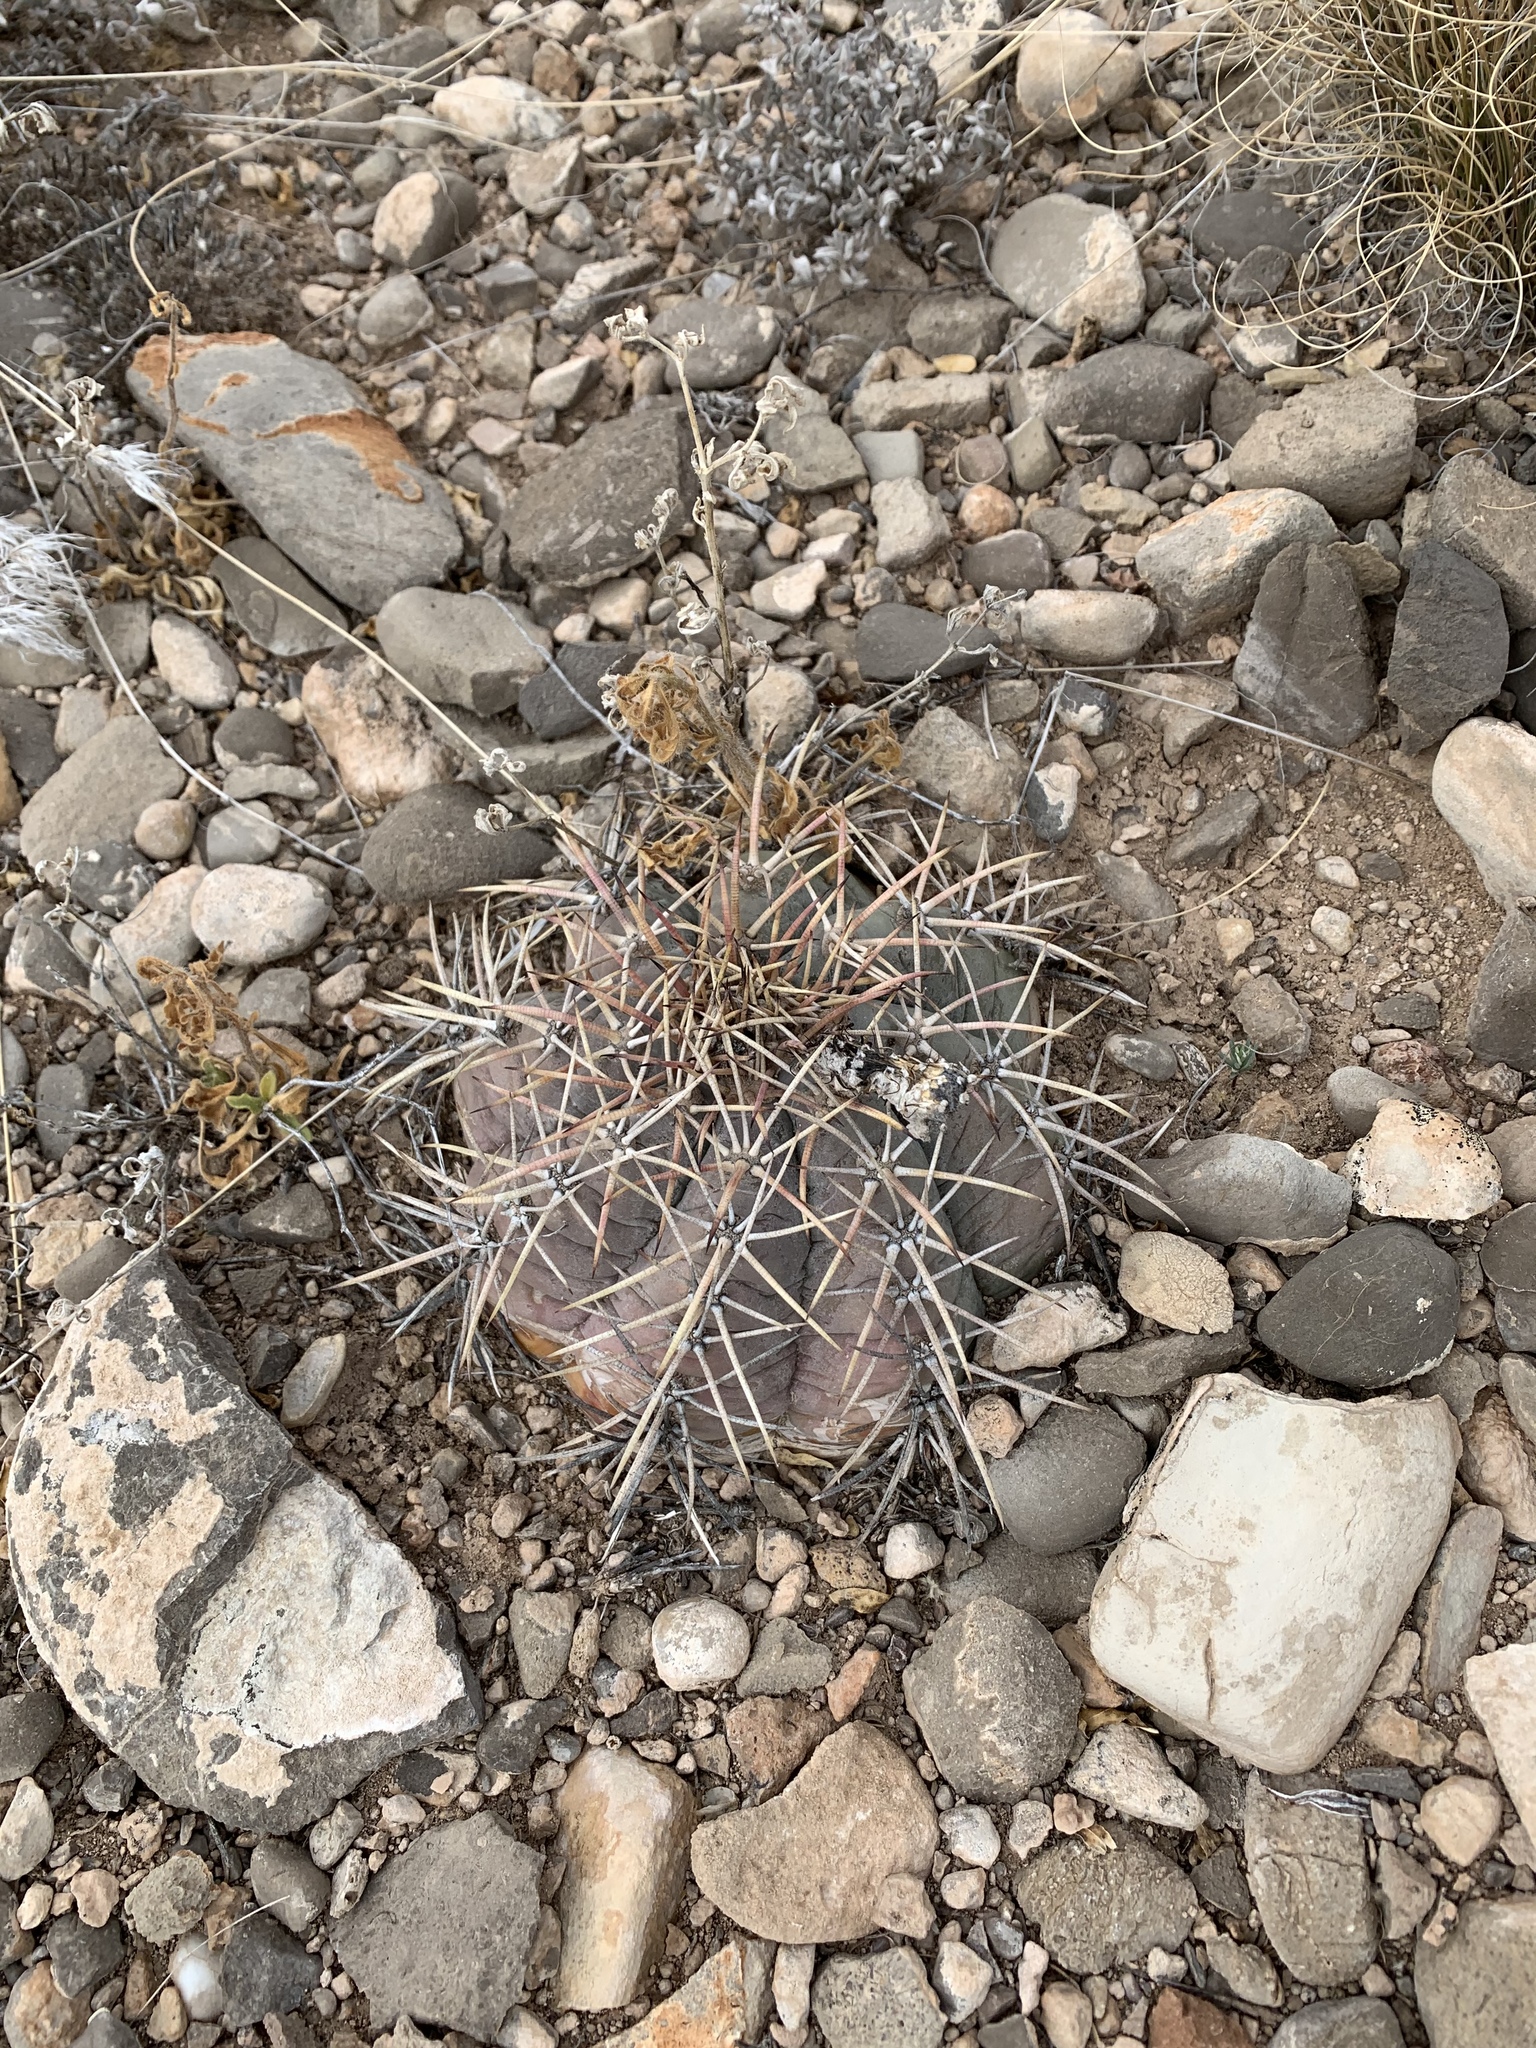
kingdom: Plantae
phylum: Tracheophyta
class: Magnoliopsida
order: Caryophyllales
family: Cactaceae
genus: Echinocactus
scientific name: Echinocactus horizonthalonius
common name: Devilshead
